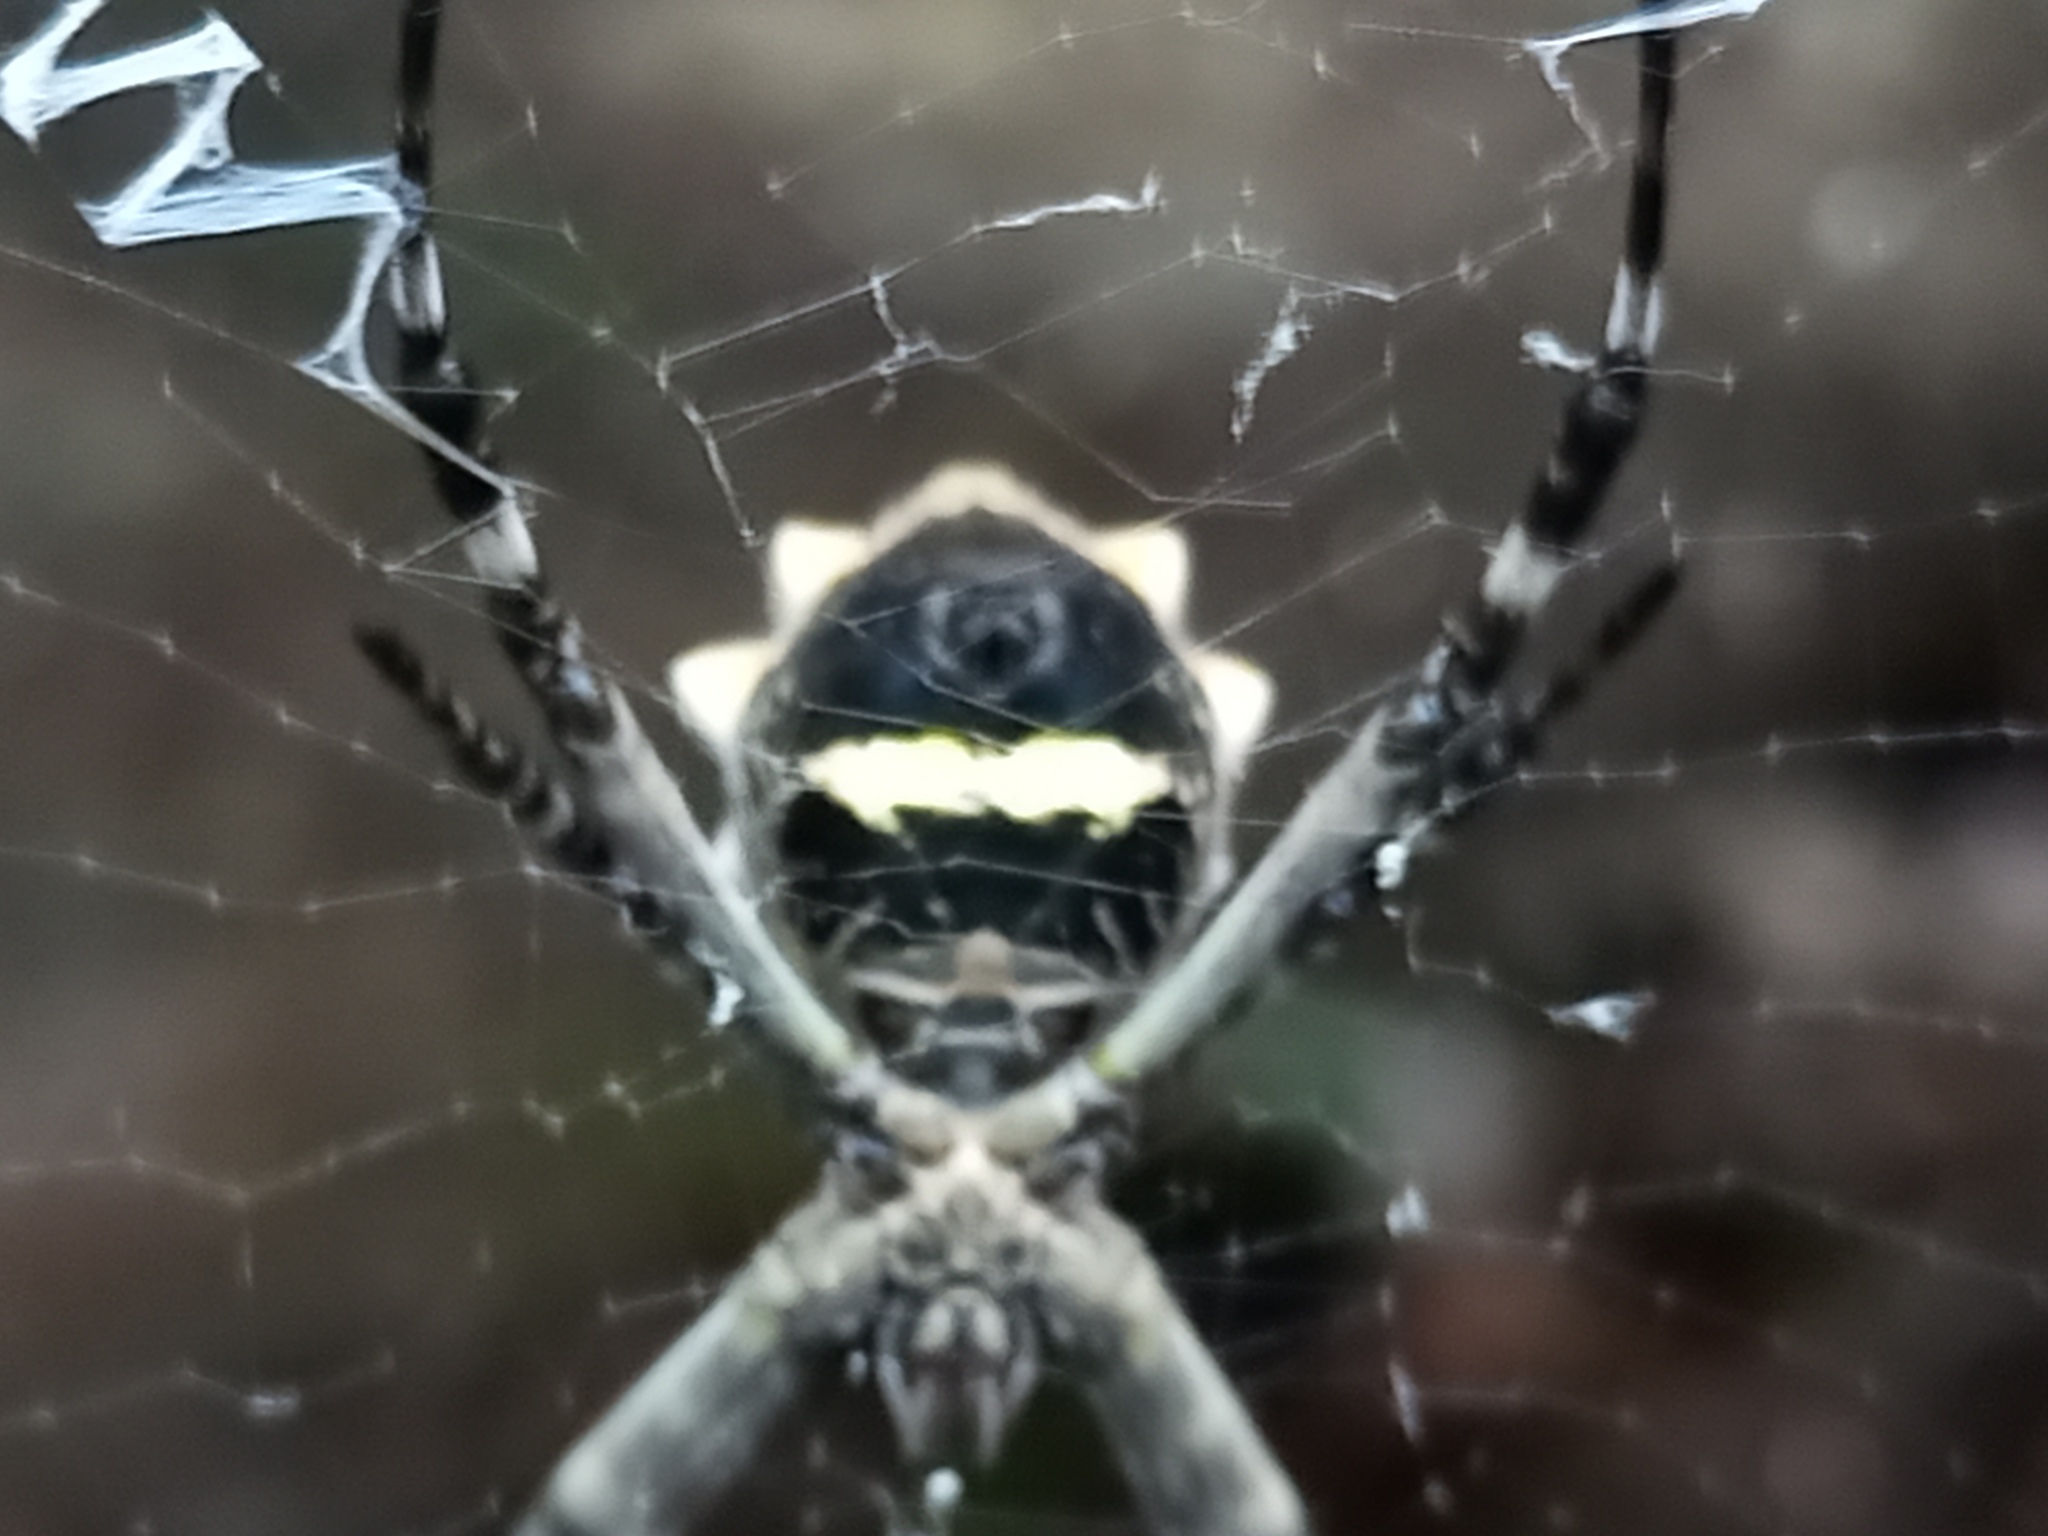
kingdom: Animalia
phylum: Arthropoda
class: Arachnida
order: Araneae
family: Araneidae
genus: Argiope
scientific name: Argiope argentata
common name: Orb weavers
